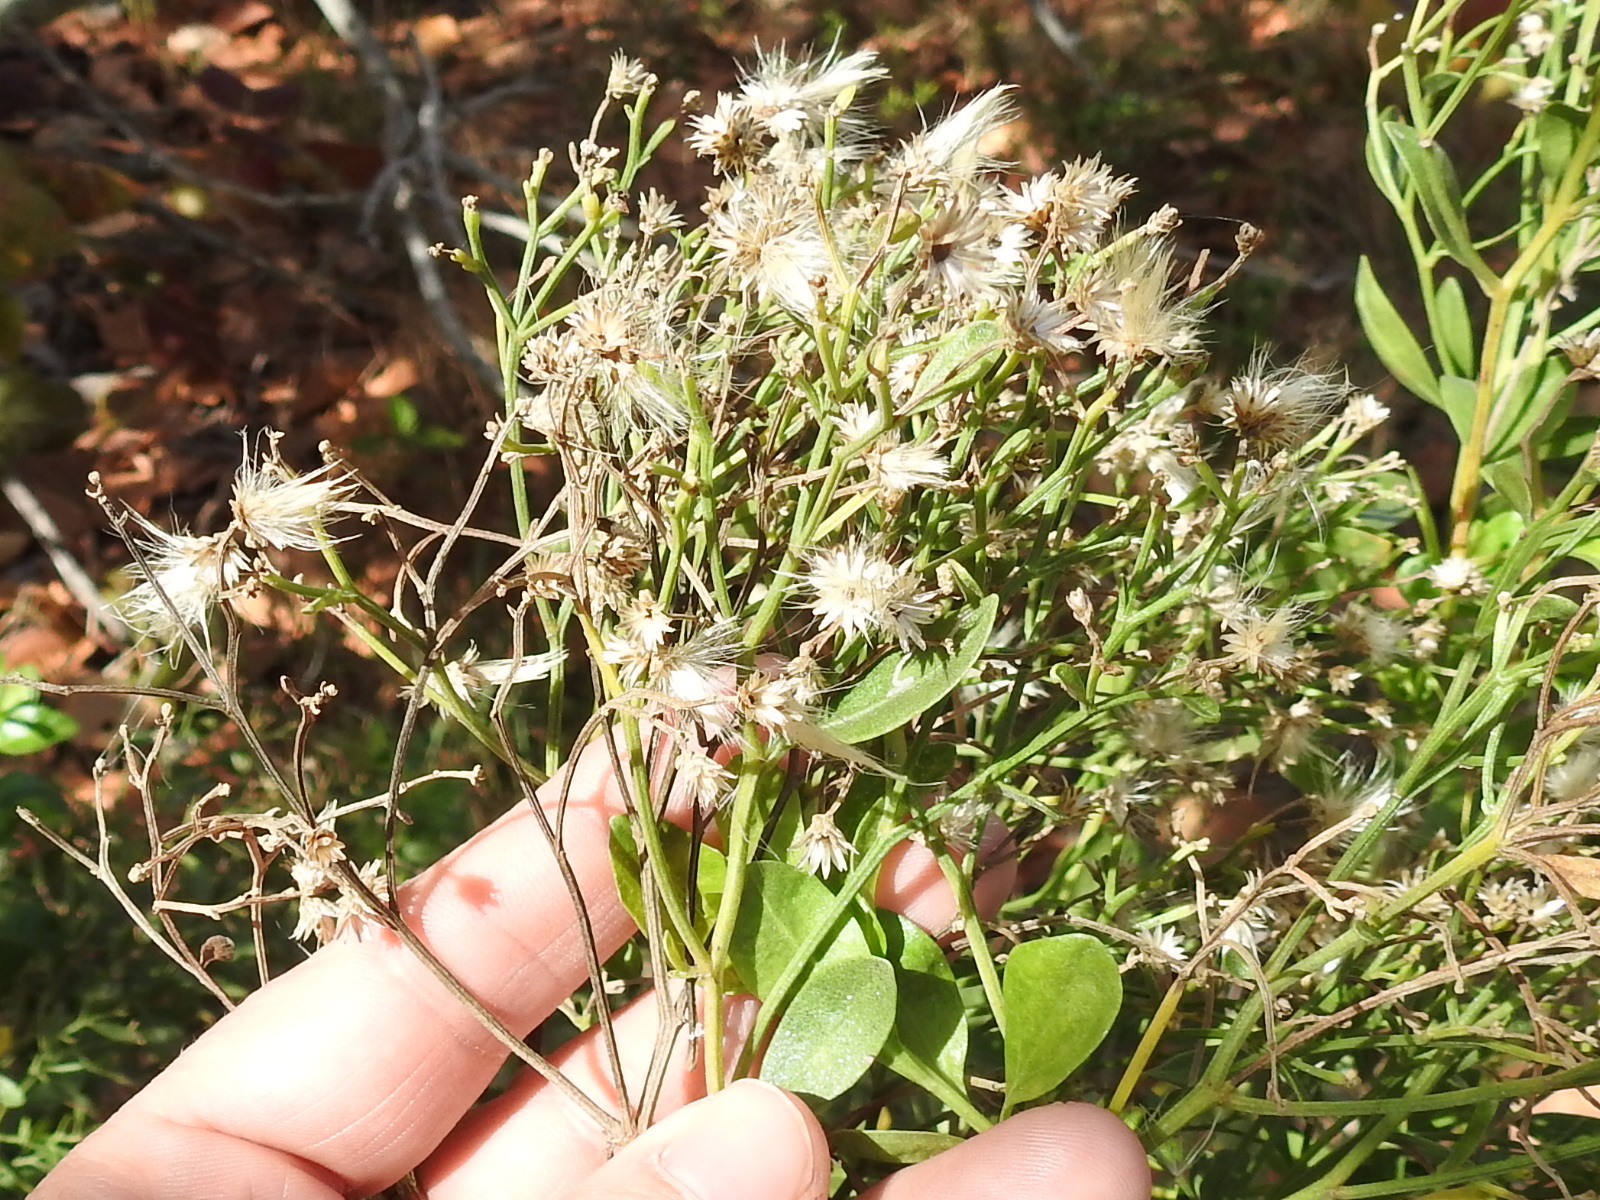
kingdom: Plantae
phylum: Tracheophyta
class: Magnoliopsida
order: Asterales
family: Asteraceae
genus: Baccharis
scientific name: Baccharis halimifolia
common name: Eastern baccharis
